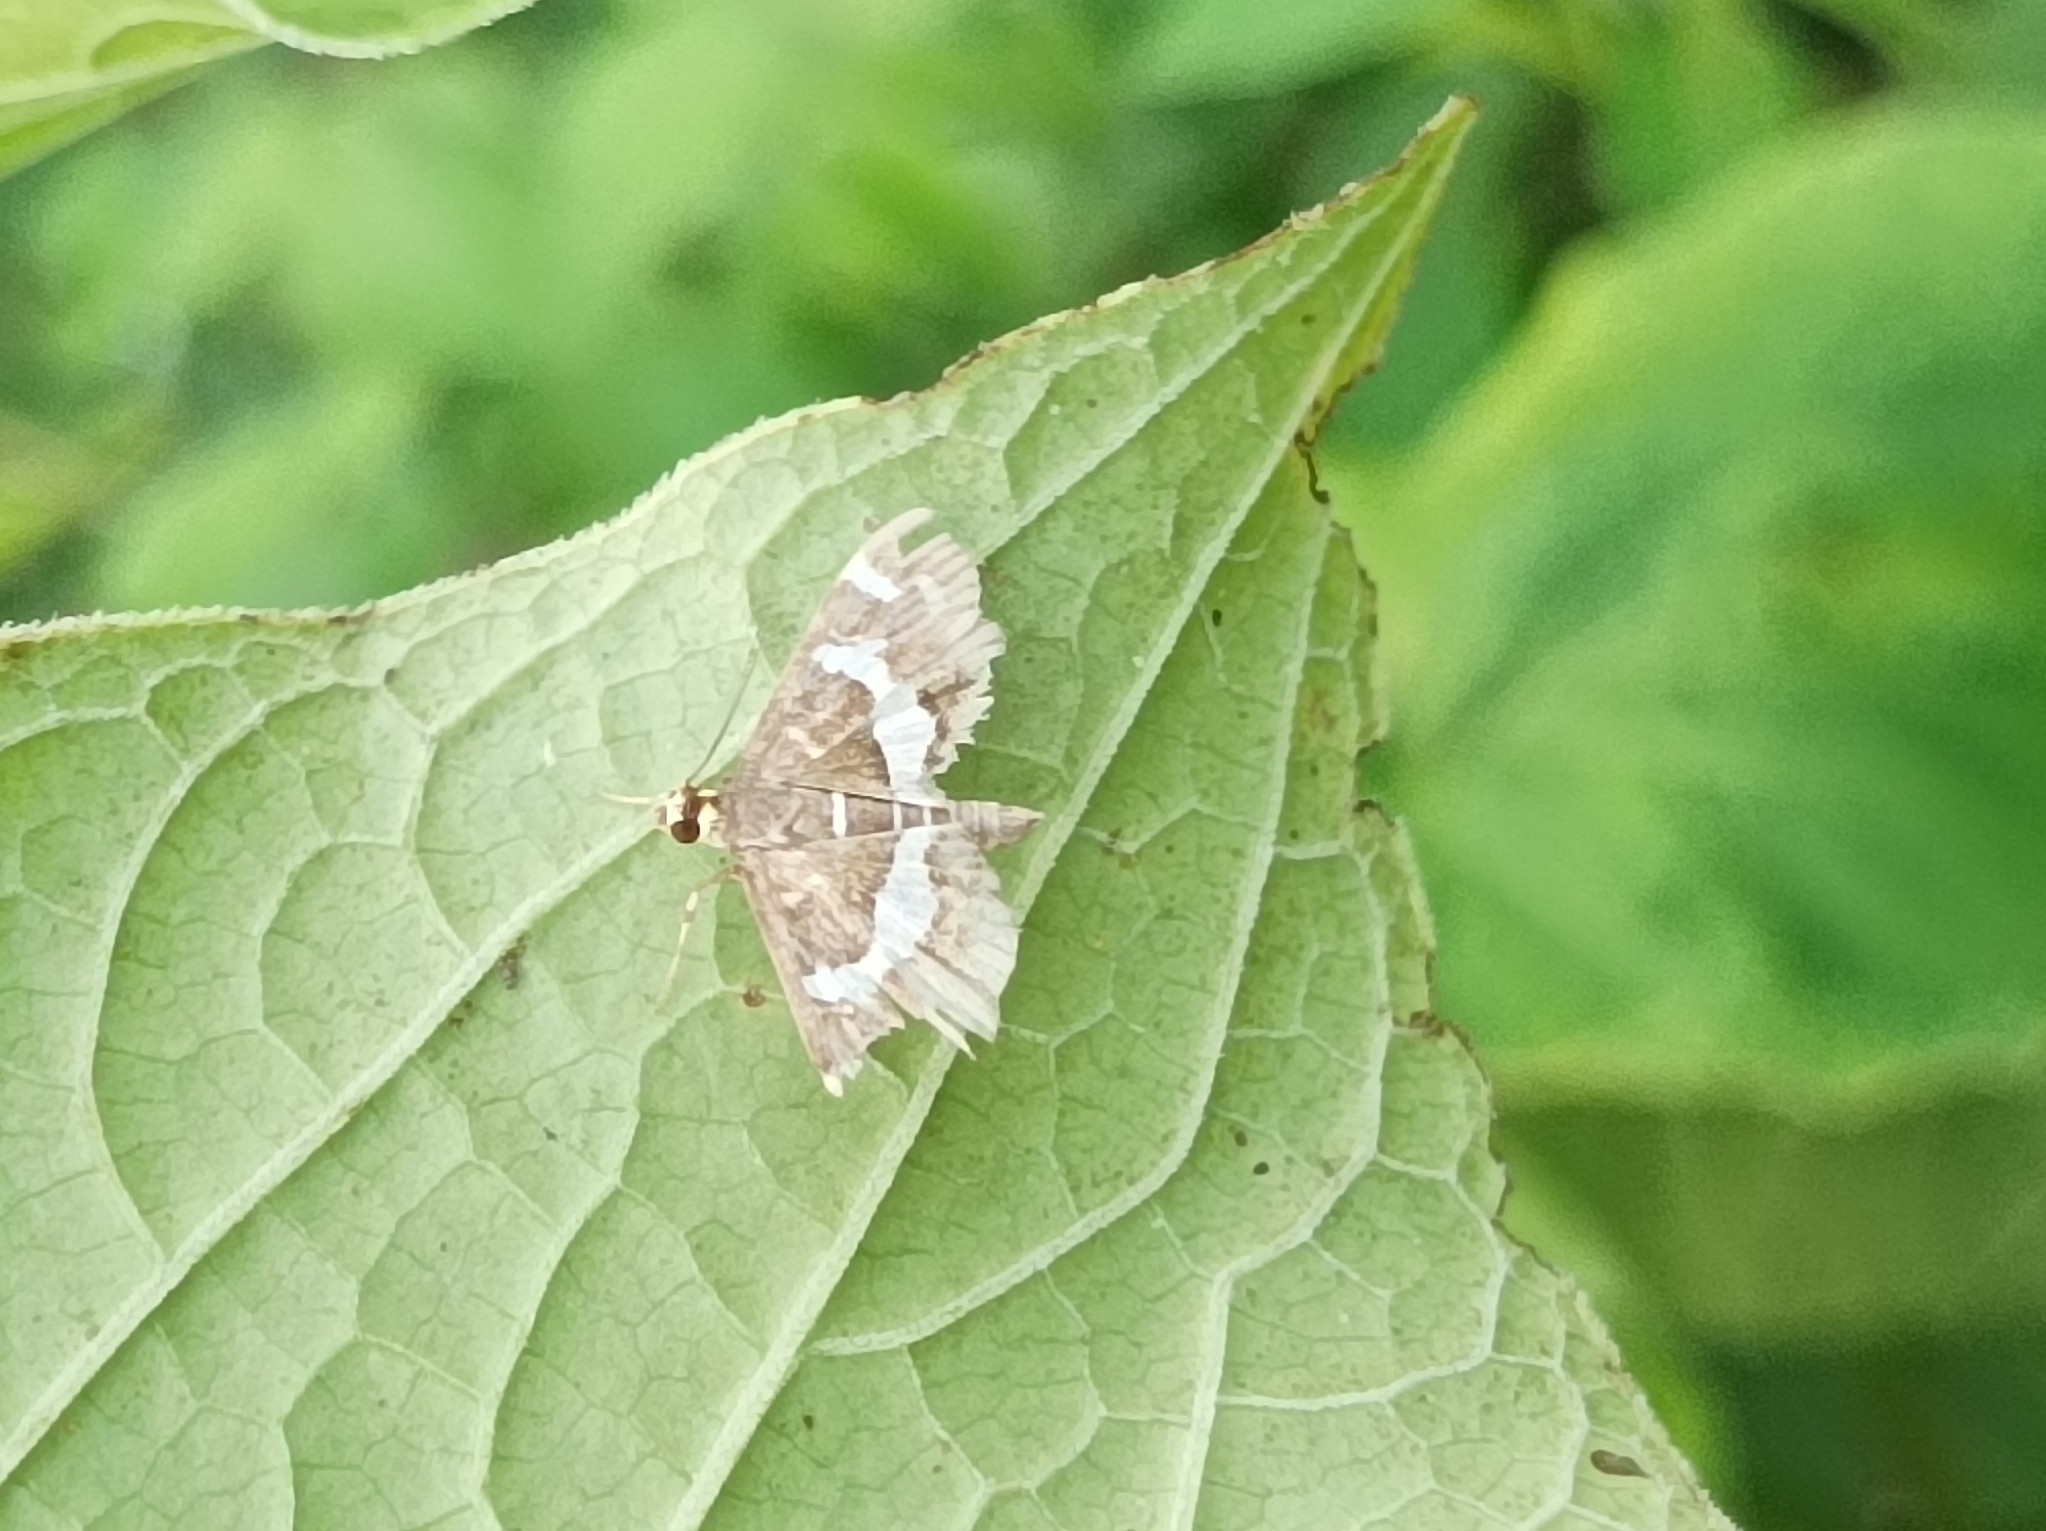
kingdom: Animalia
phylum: Arthropoda
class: Insecta
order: Lepidoptera
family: Crambidae
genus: Spoladea
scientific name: Spoladea recurvalis
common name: Beet webworm moth
